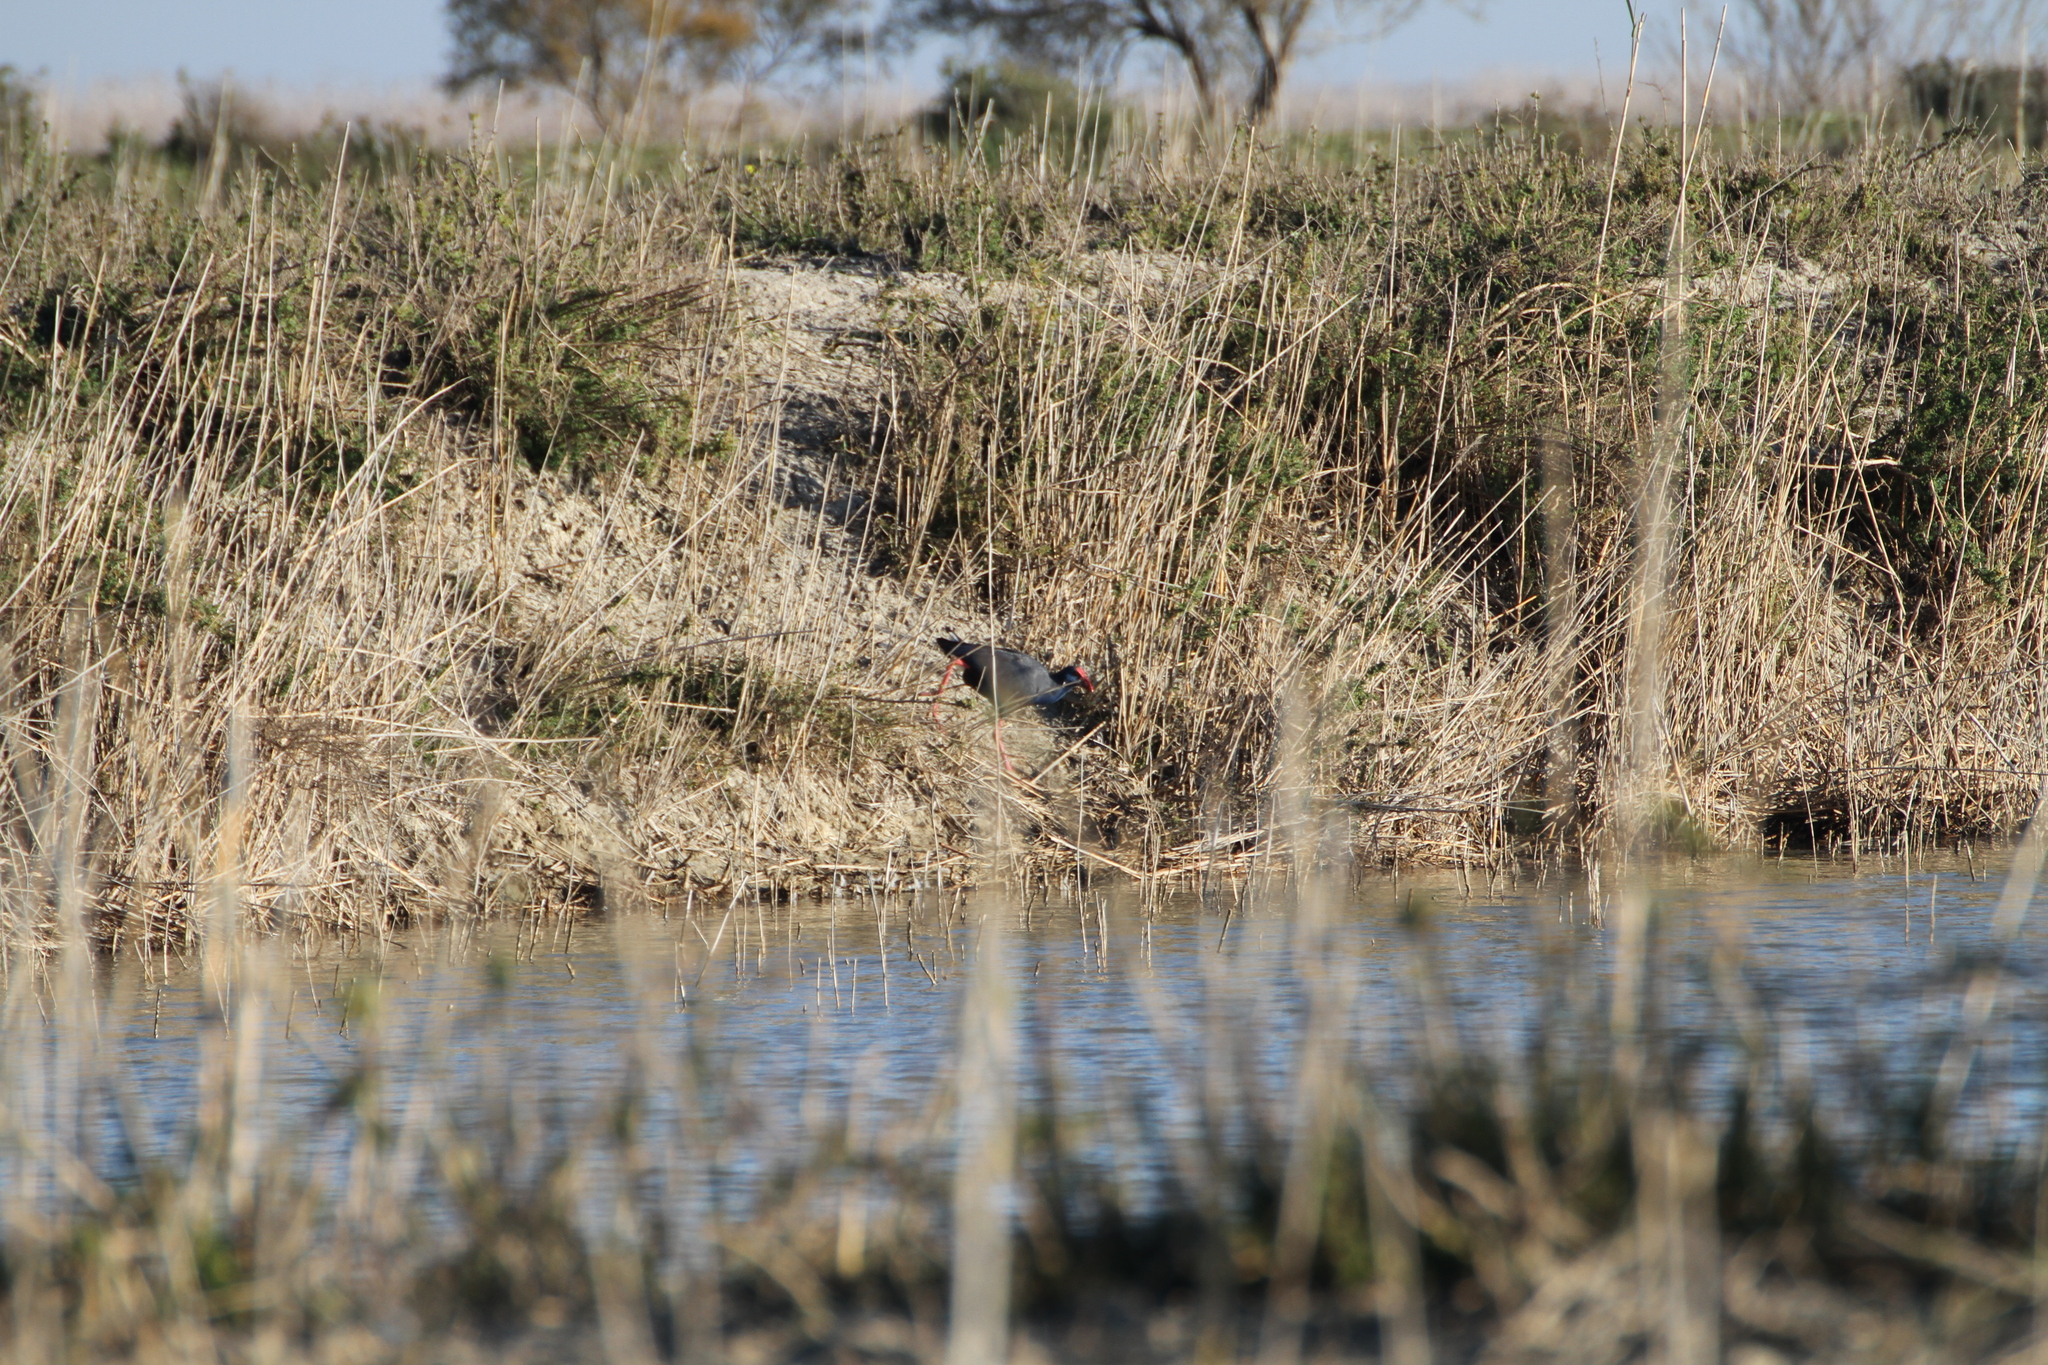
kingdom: Animalia
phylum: Chordata
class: Aves
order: Gruiformes
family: Rallidae
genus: Porphyrio
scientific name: Porphyrio porphyrio
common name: Purple swamphen
